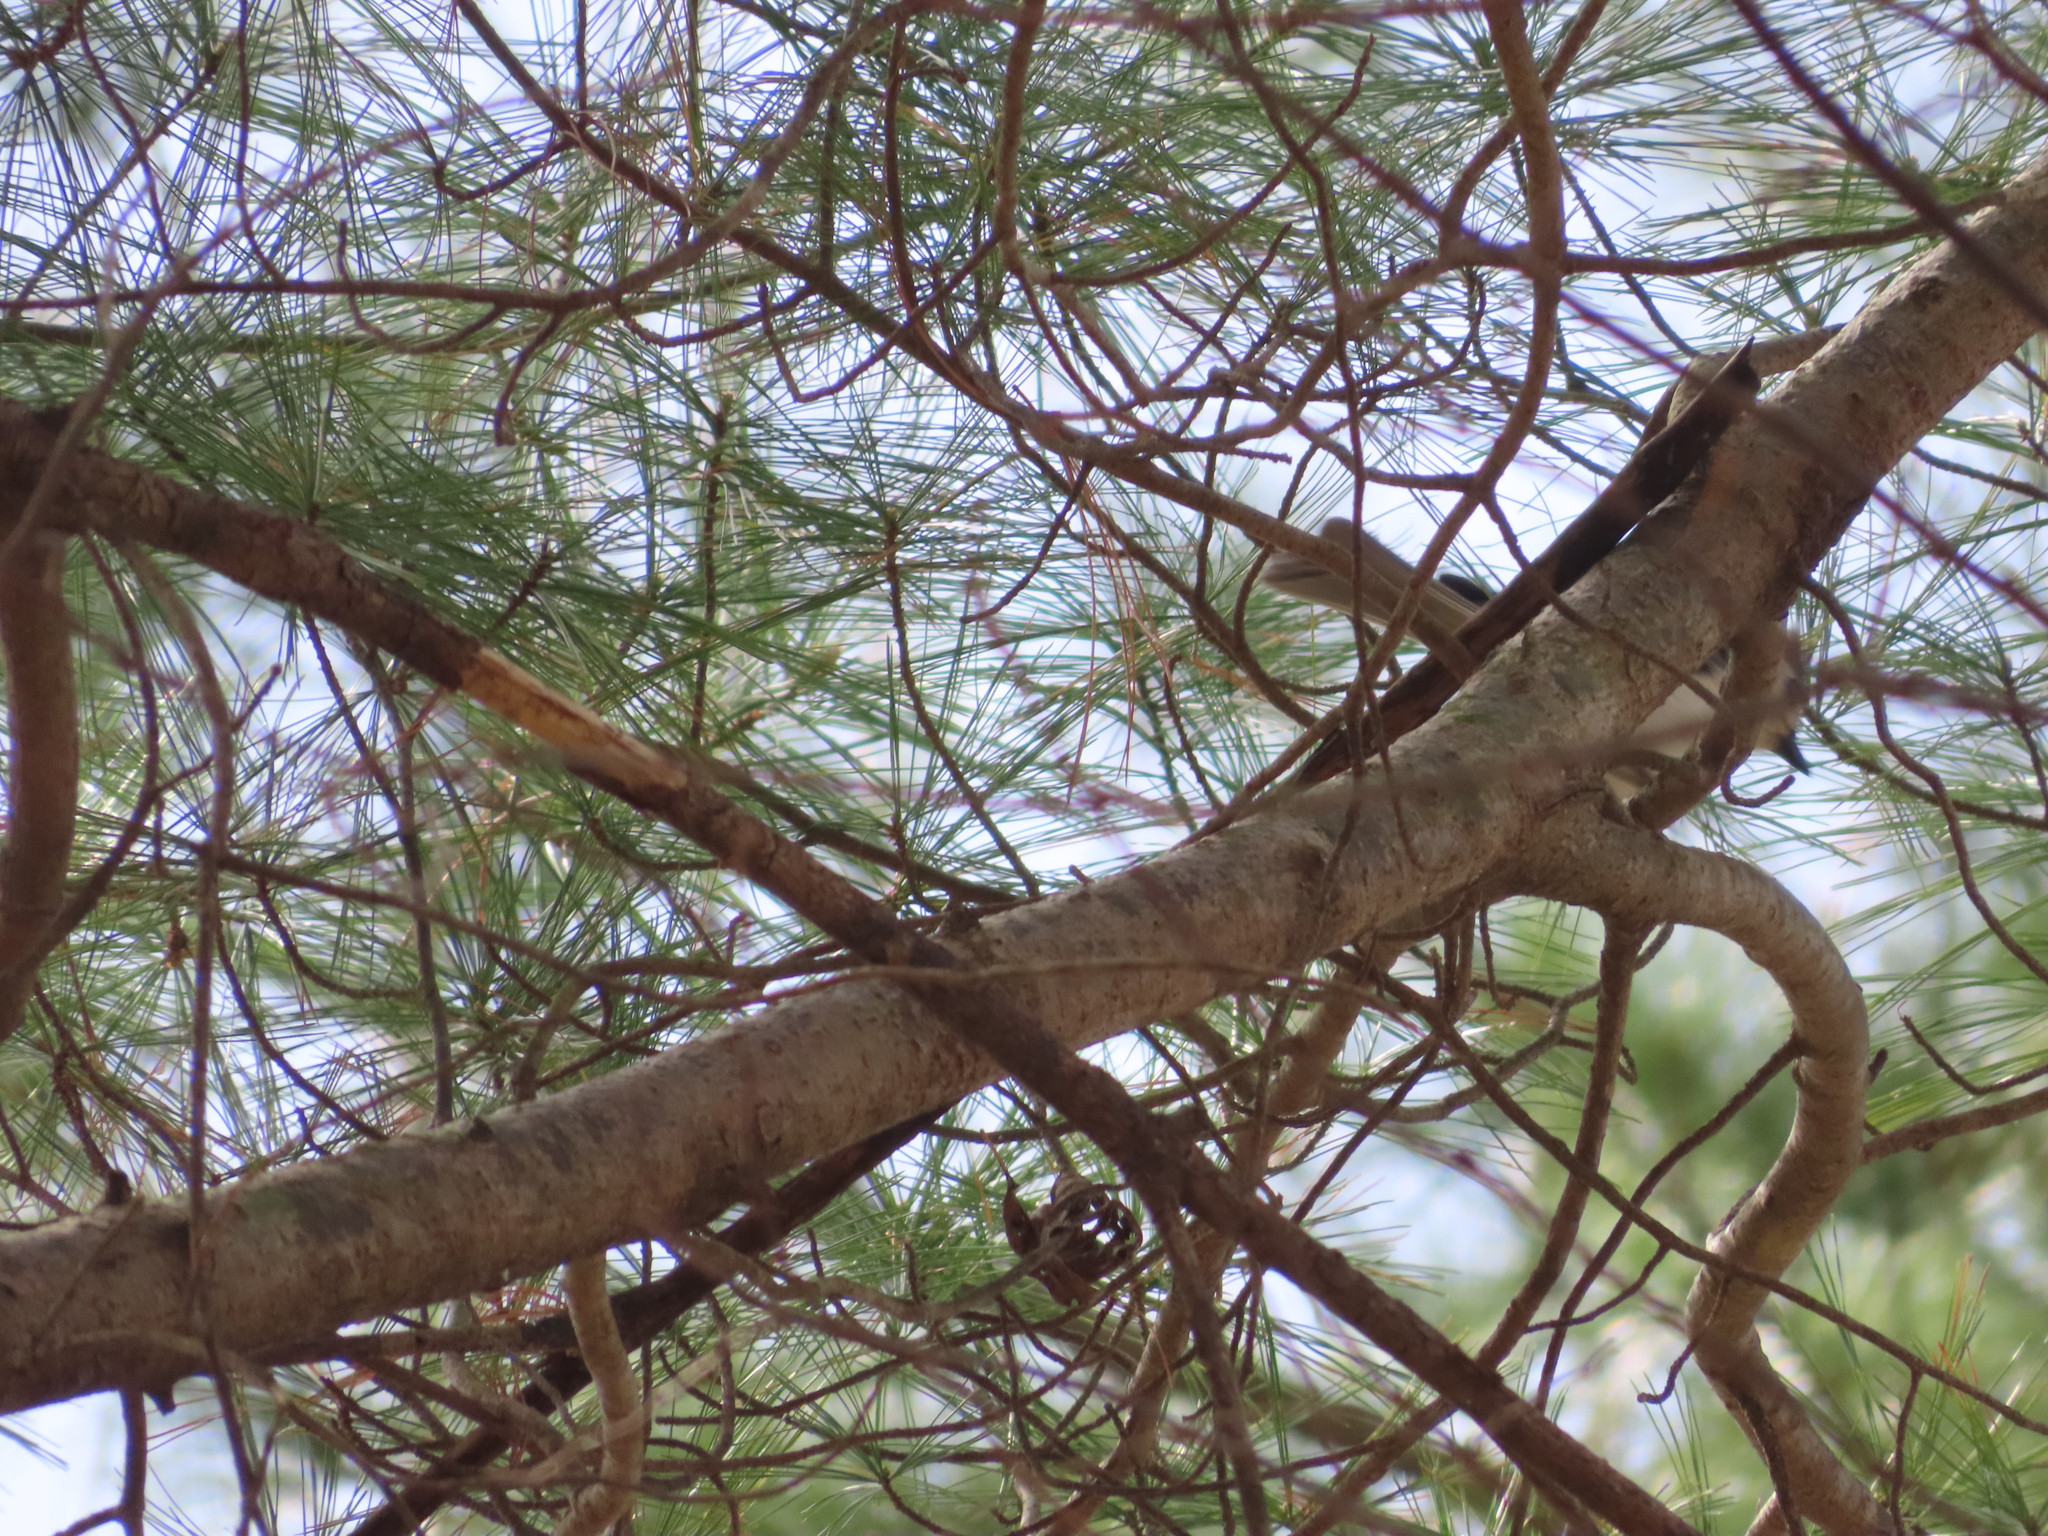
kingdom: Animalia
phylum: Chordata
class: Aves
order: Passeriformes
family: Paridae
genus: Baeolophus
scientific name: Baeolophus bicolor
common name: Tufted titmouse
